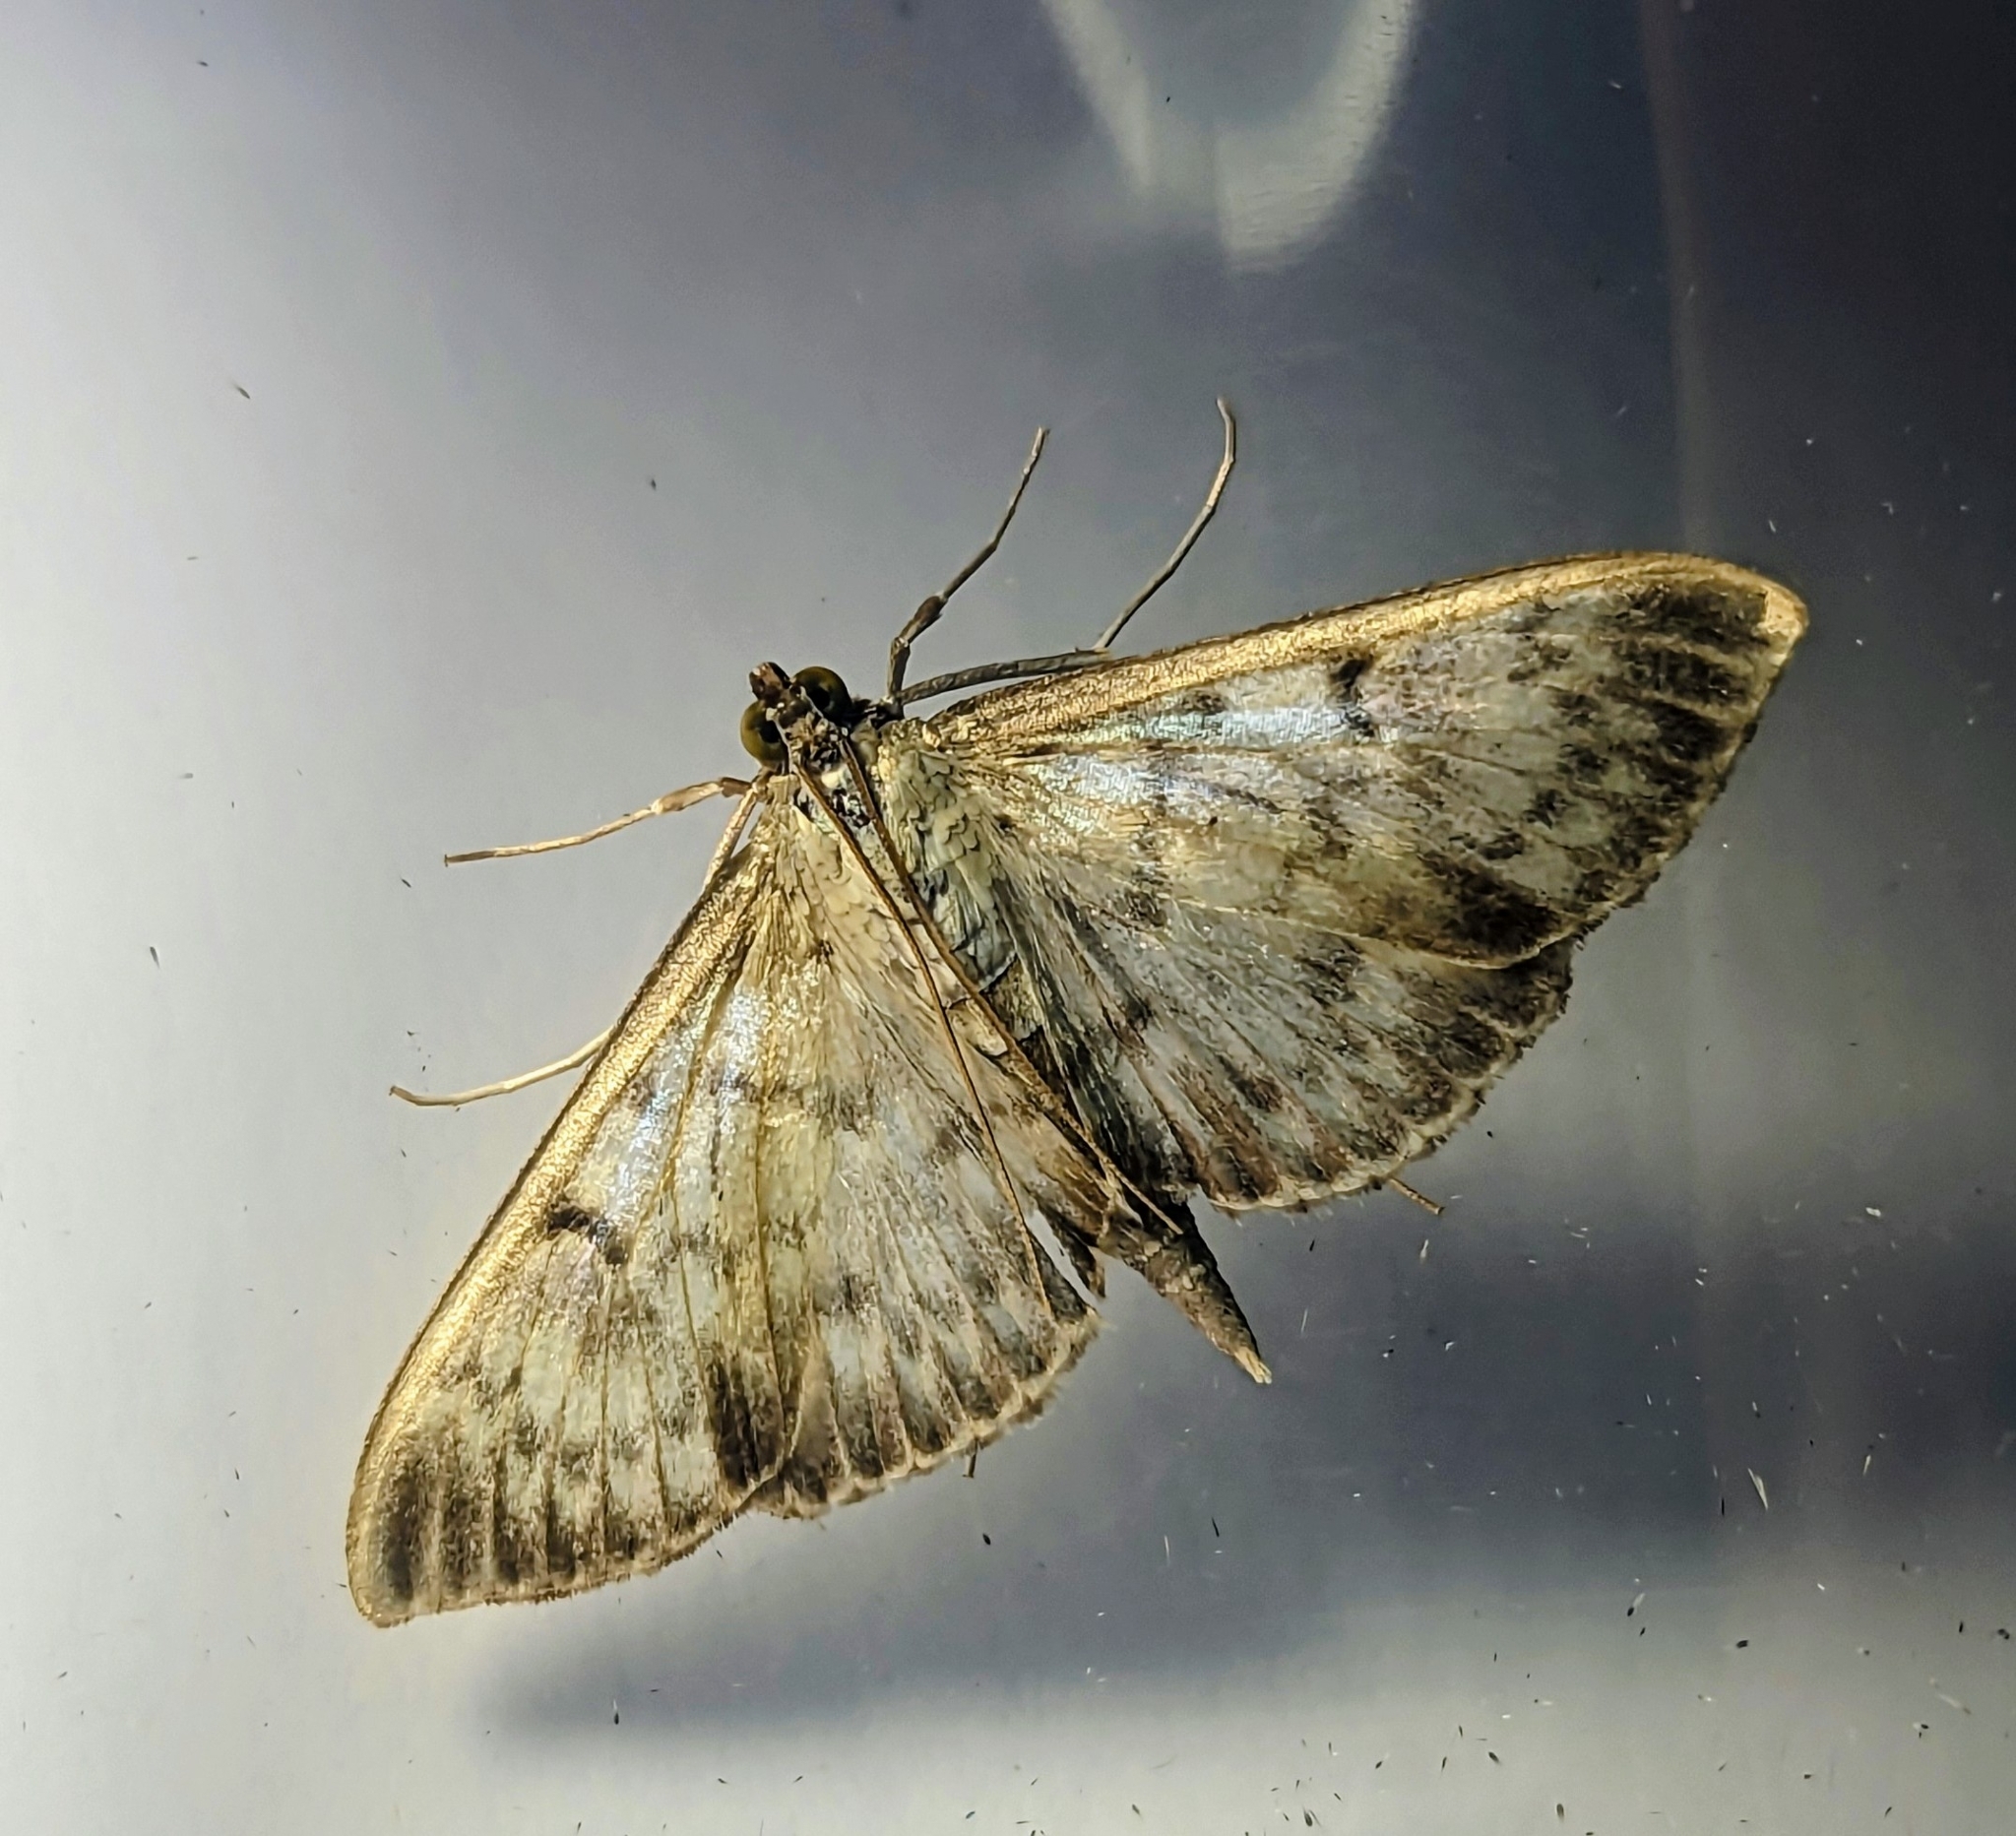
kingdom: Animalia
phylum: Arthropoda
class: Insecta
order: Lepidoptera
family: Crambidae
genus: Patania
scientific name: Patania ruralis
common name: Mother of pearl
